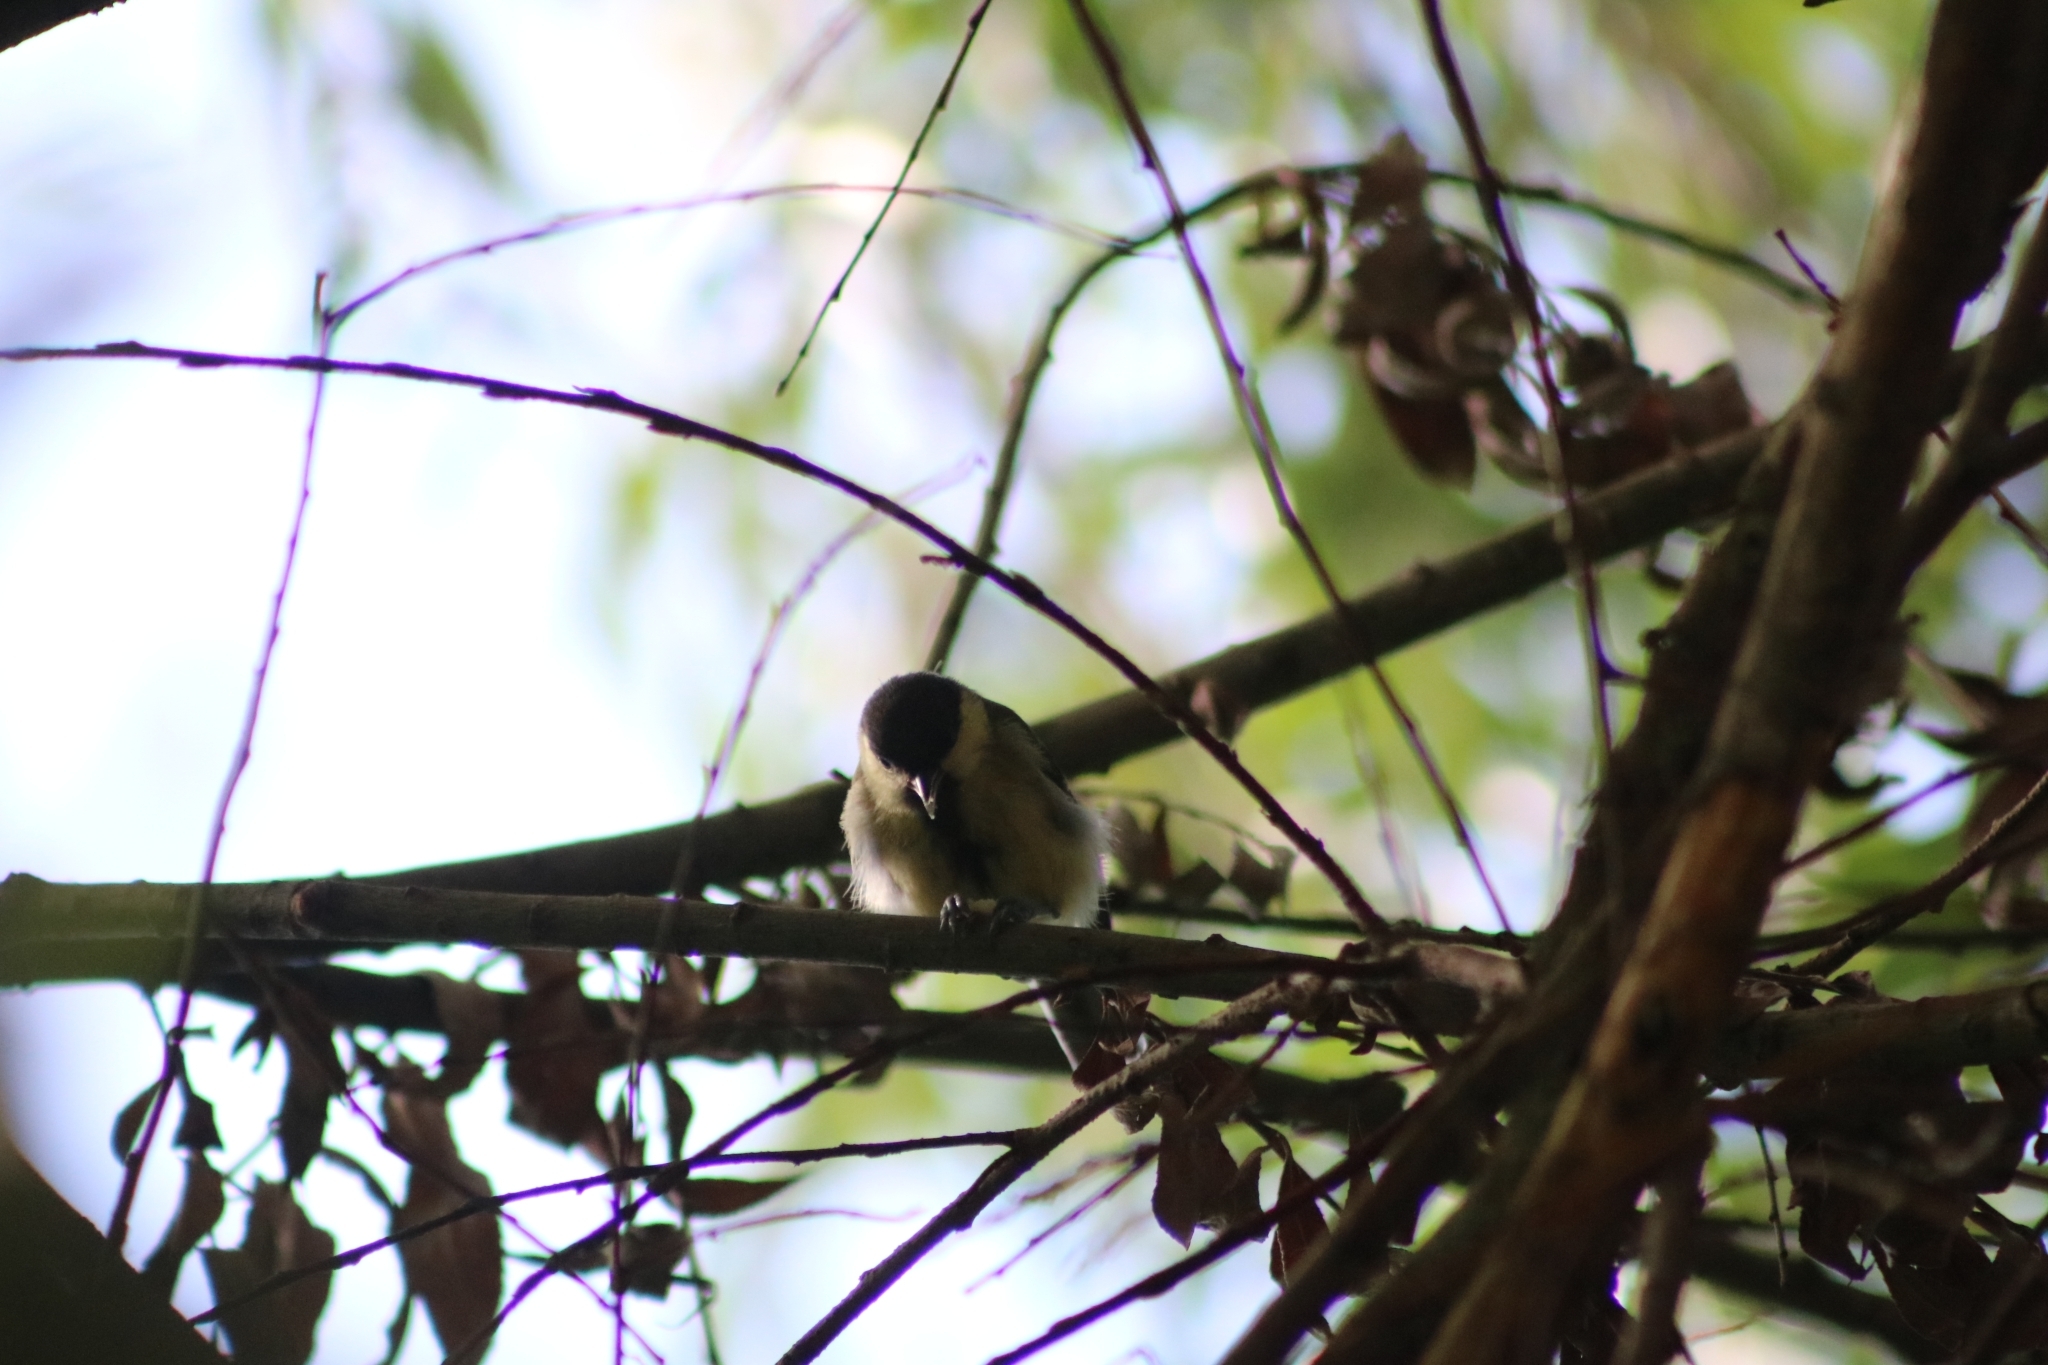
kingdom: Animalia
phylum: Chordata
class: Aves
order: Passeriformes
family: Paridae
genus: Parus
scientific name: Parus major
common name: Great tit
